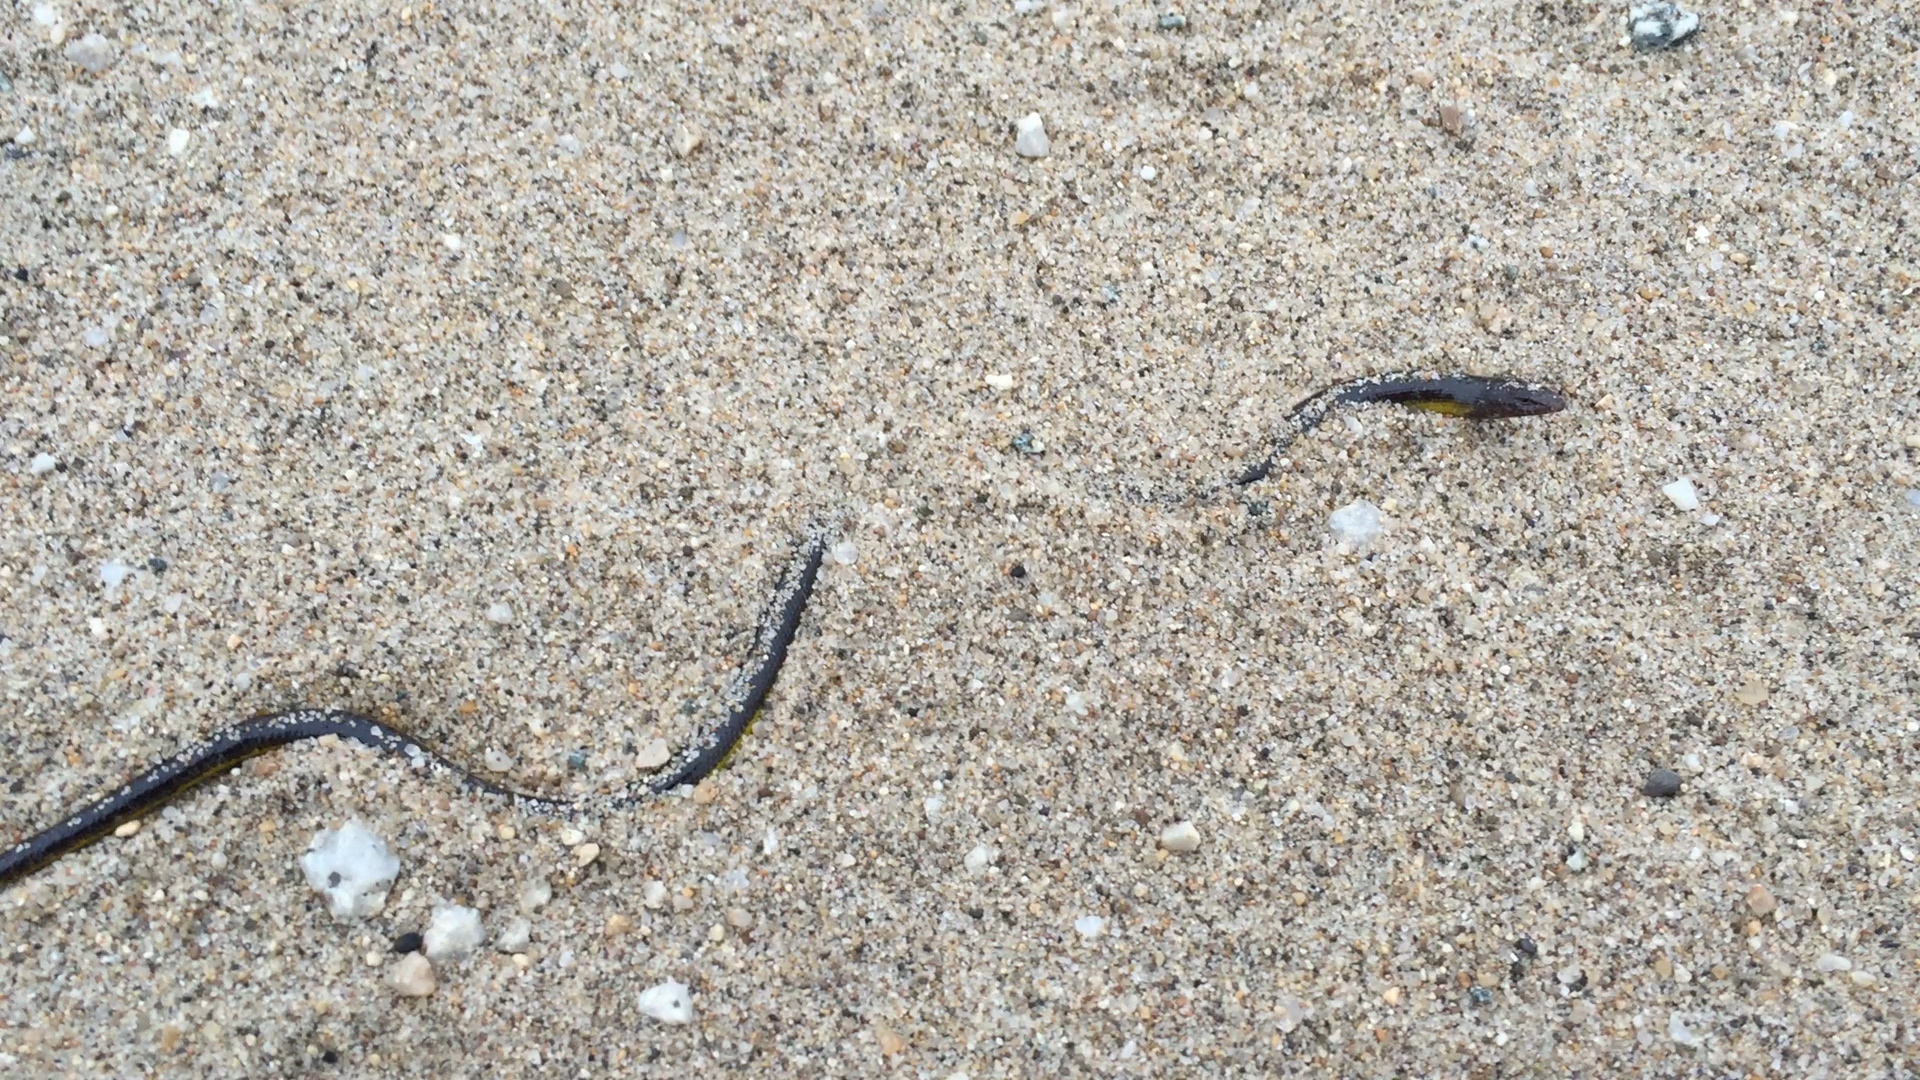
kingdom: Animalia
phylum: Chordata
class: Squamata
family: Anguidae
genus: Anniella
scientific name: Anniella pulchra
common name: California legless lizard
